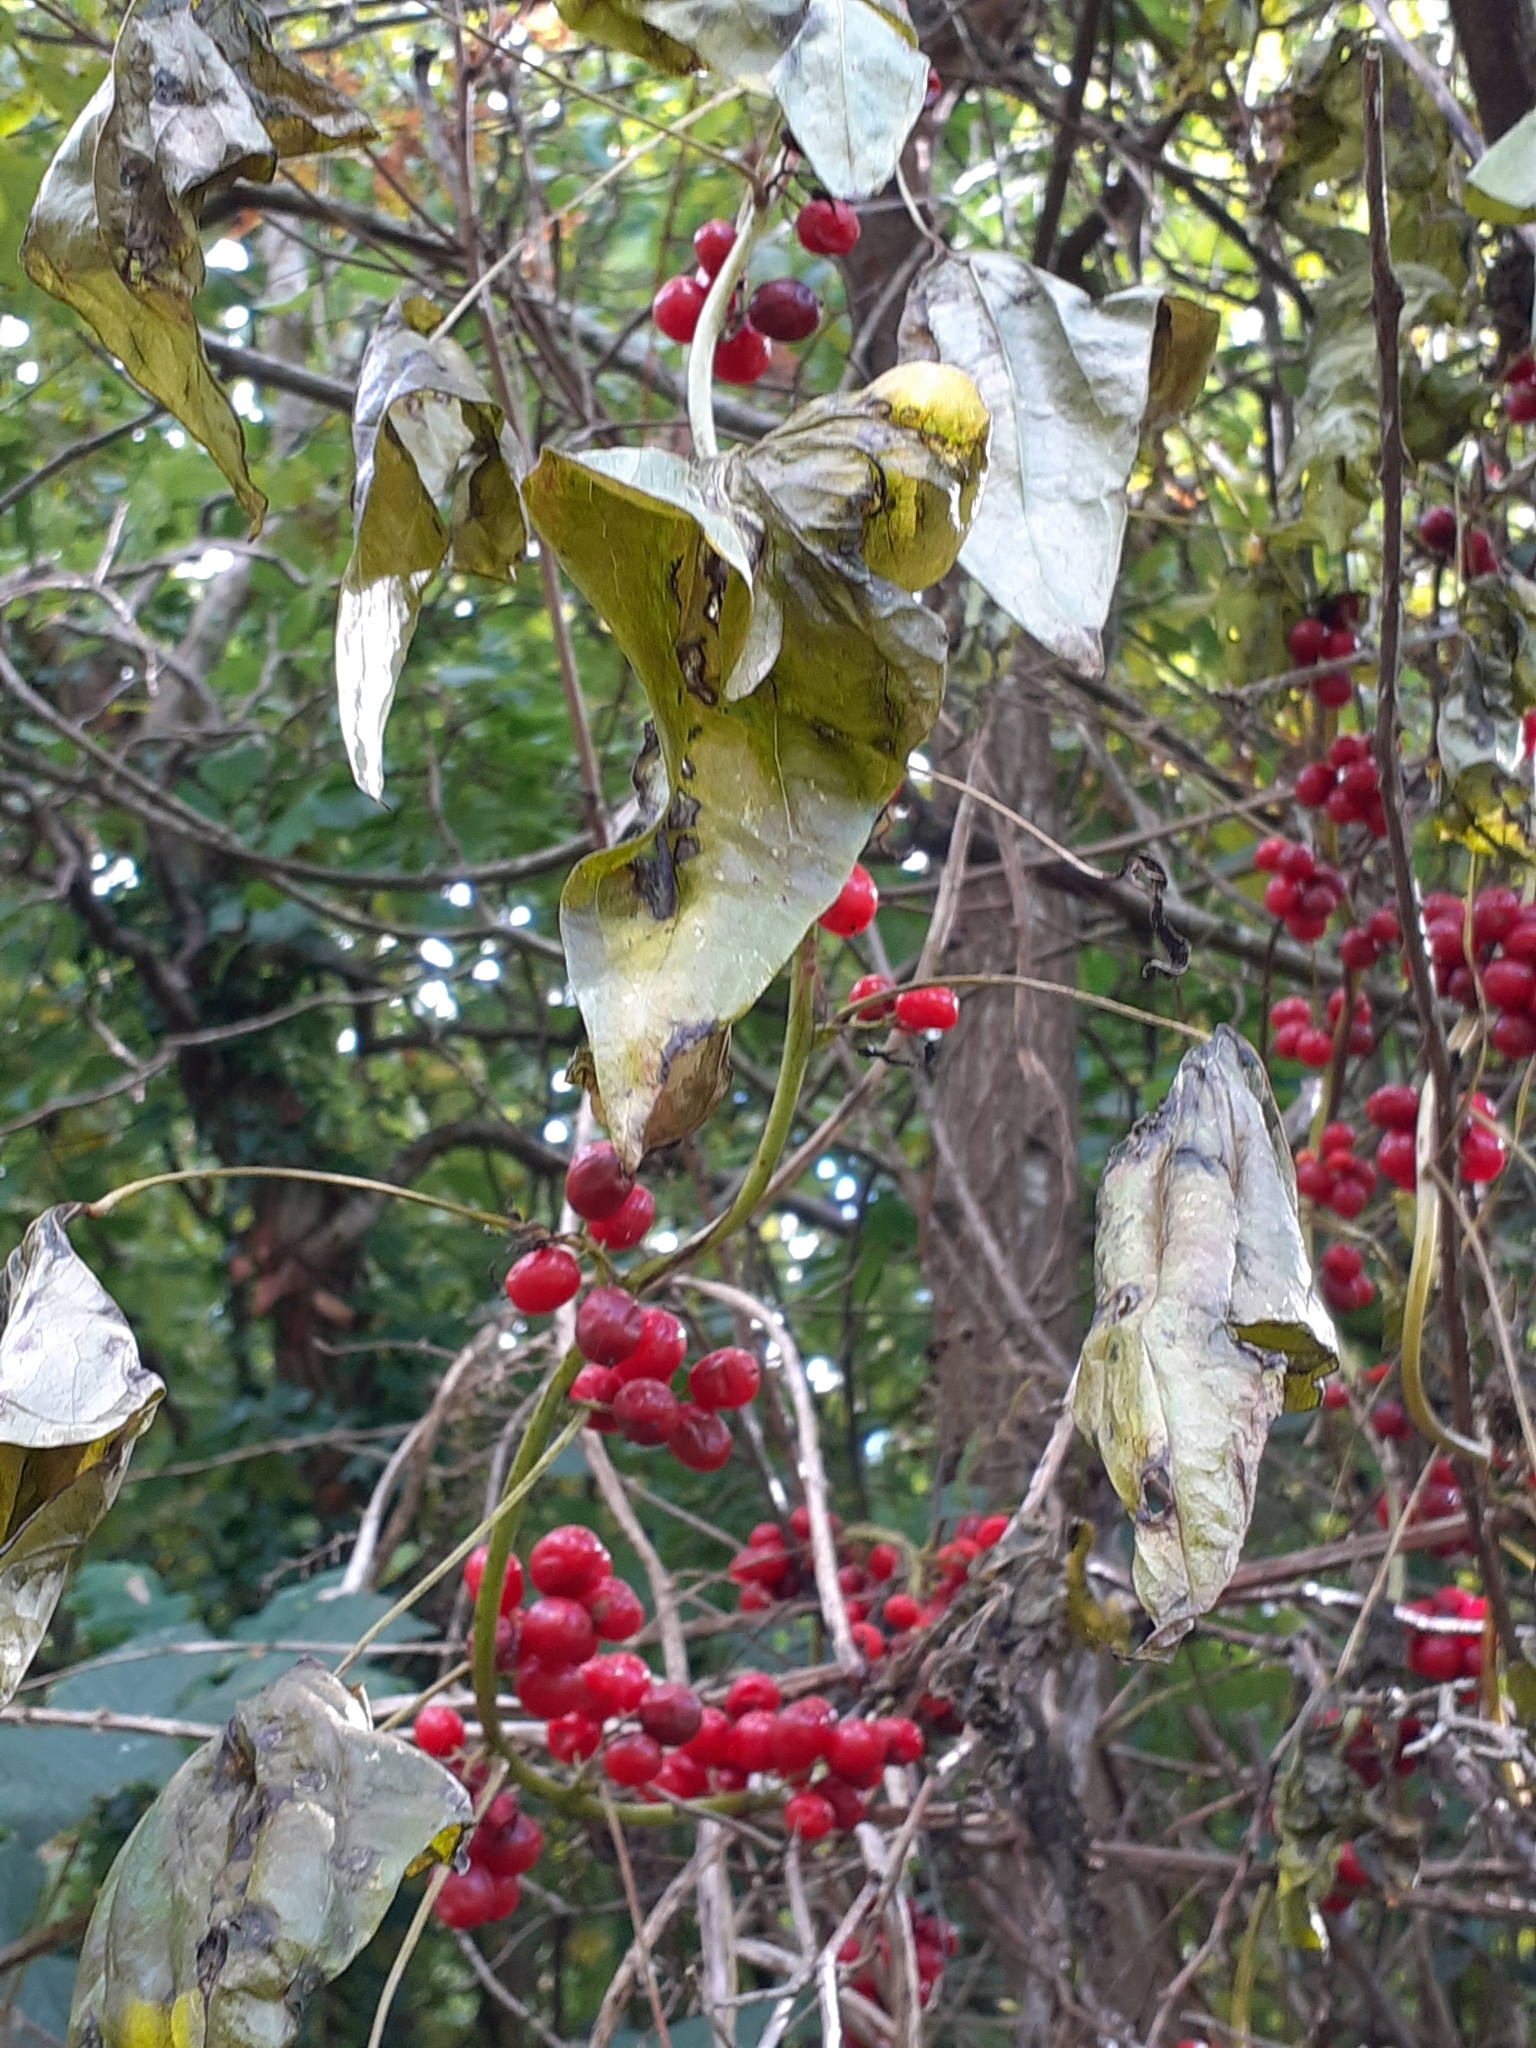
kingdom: Plantae
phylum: Tracheophyta
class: Liliopsida
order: Dioscoreales
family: Dioscoreaceae
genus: Dioscorea
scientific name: Dioscorea communis
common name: Black-bindweed
